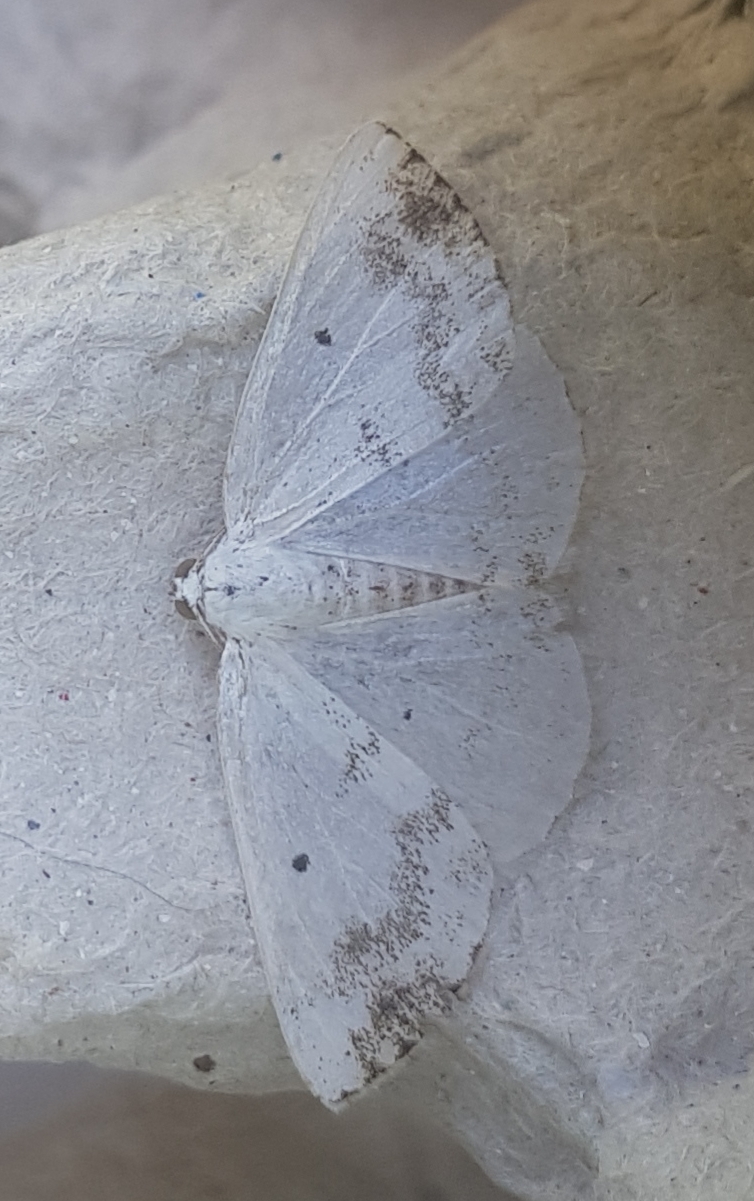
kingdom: Animalia
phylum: Arthropoda
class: Insecta
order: Lepidoptera
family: Geometridae
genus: Lomographa
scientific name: Lomographa temerata
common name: Clouded silver
